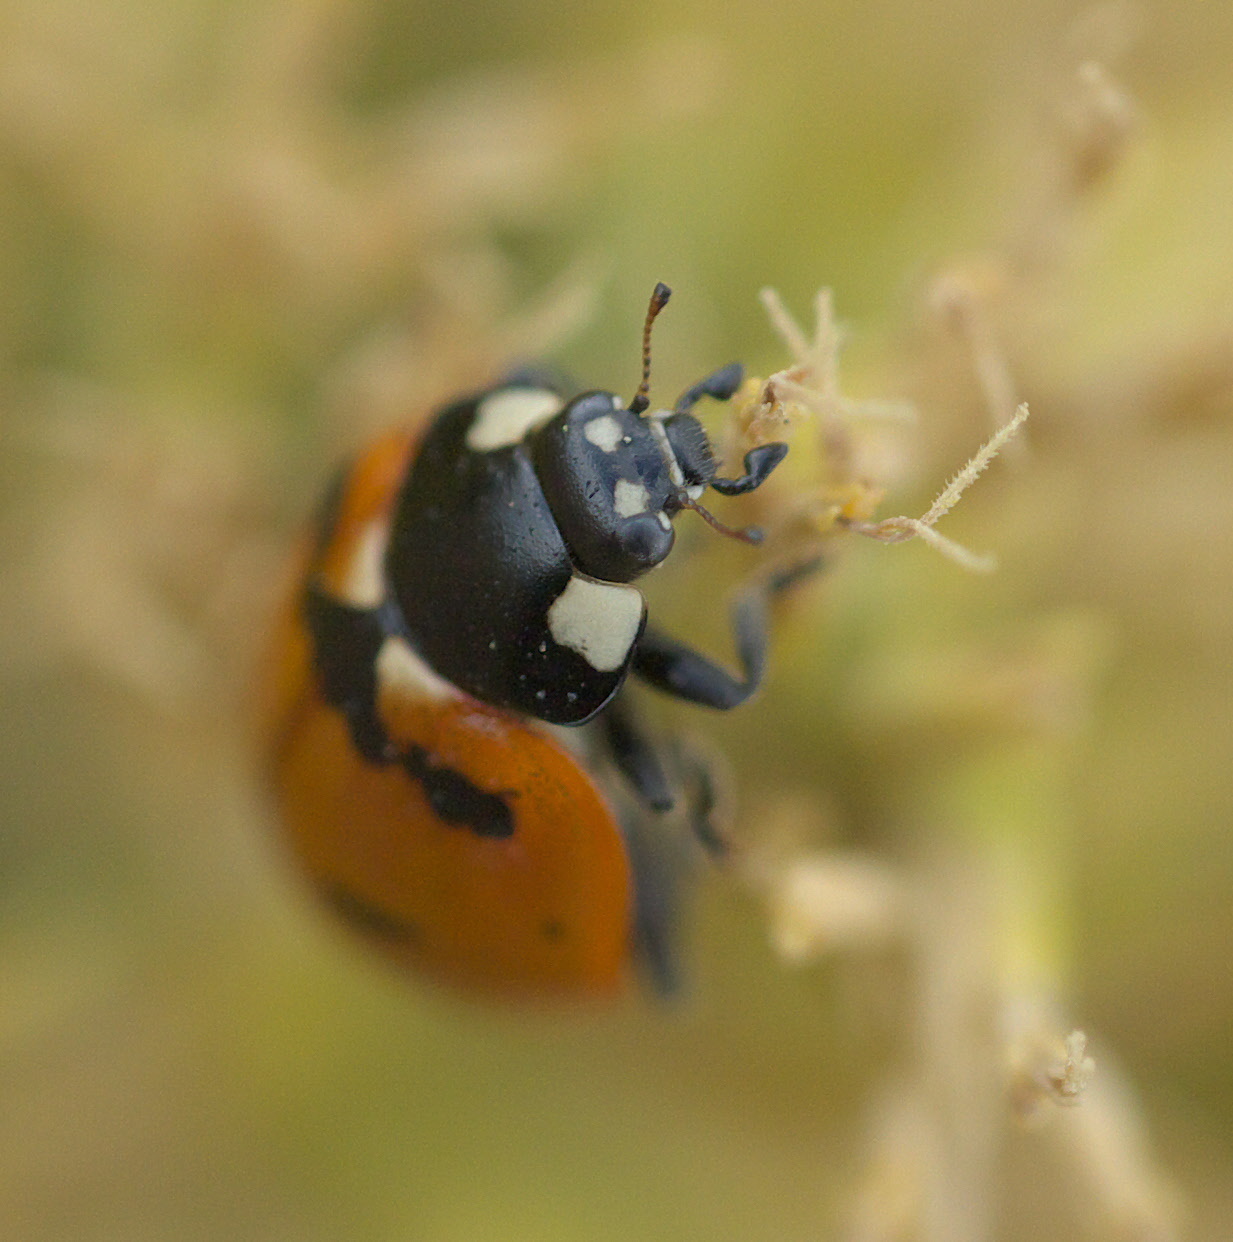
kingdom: Animalia
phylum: Arthropoda
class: Insecta
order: Coleoptera
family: Coccinellidae
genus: Coccinella
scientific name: Coccinella transversoguttata
